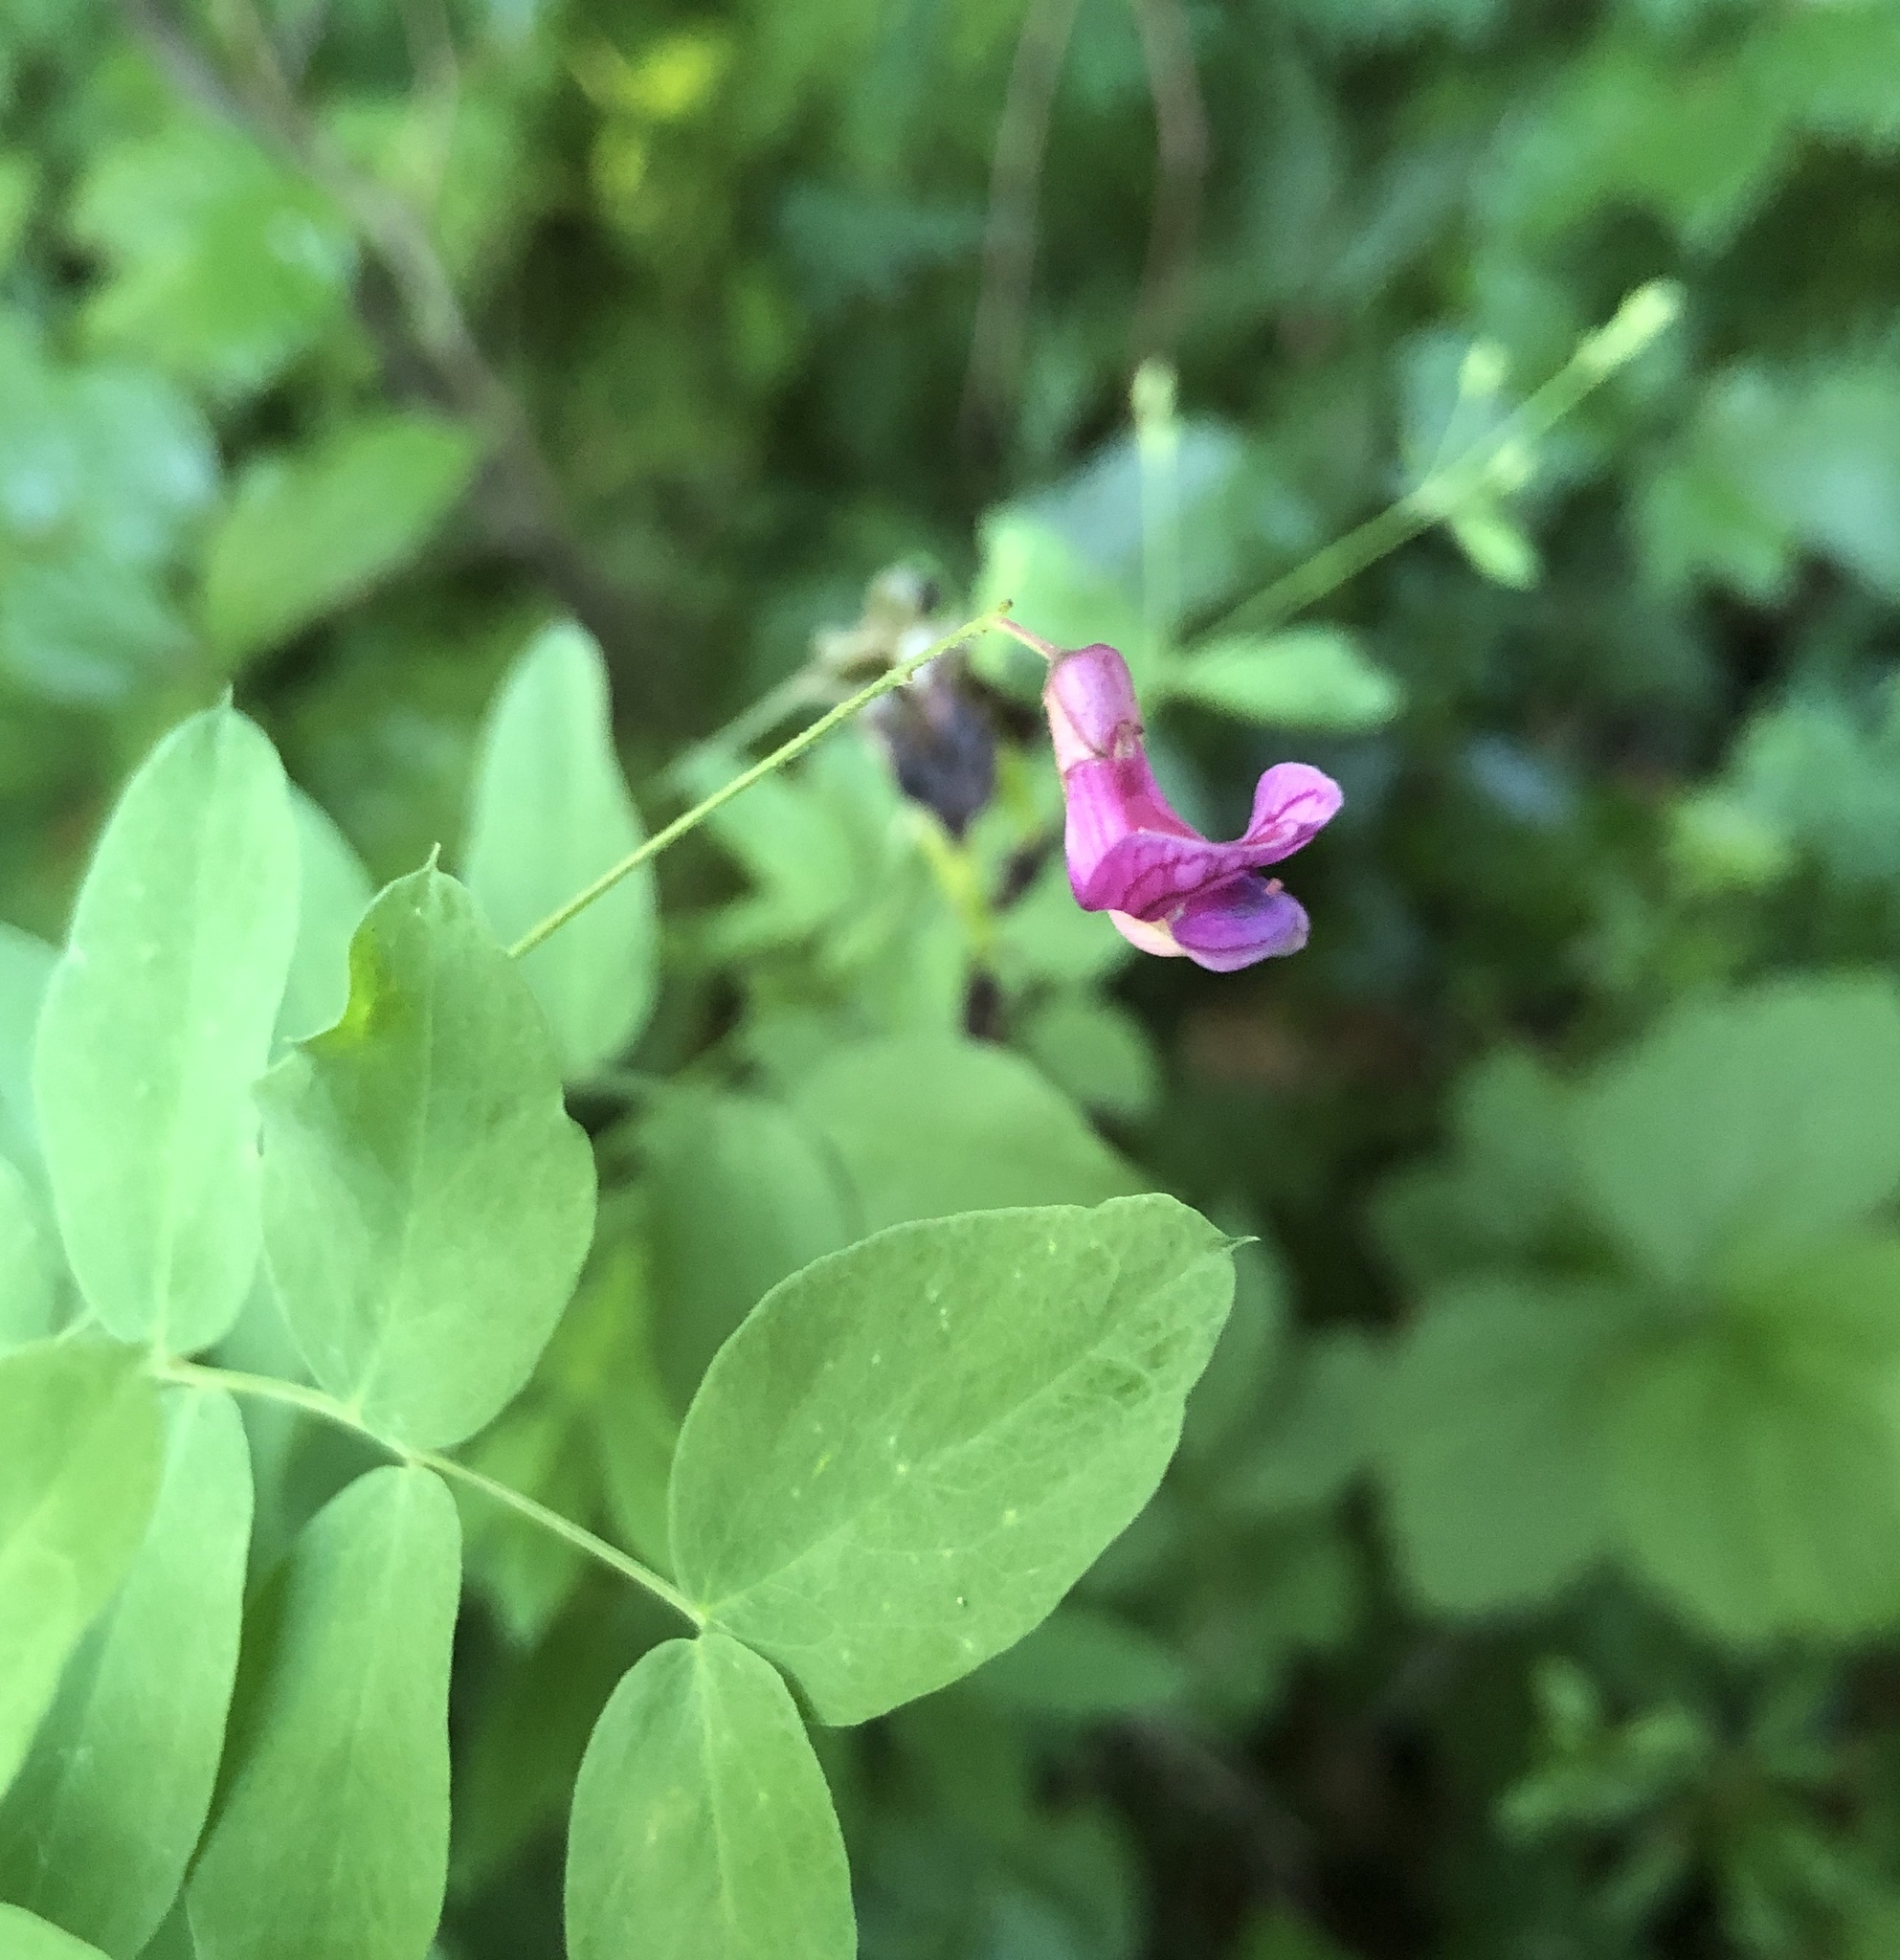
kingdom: Plantae
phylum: Tracheophyta
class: Magnoliopsida
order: Fabales
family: Fabaceae
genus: Lathyrus
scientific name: Lathyrus niger
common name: Black pea
